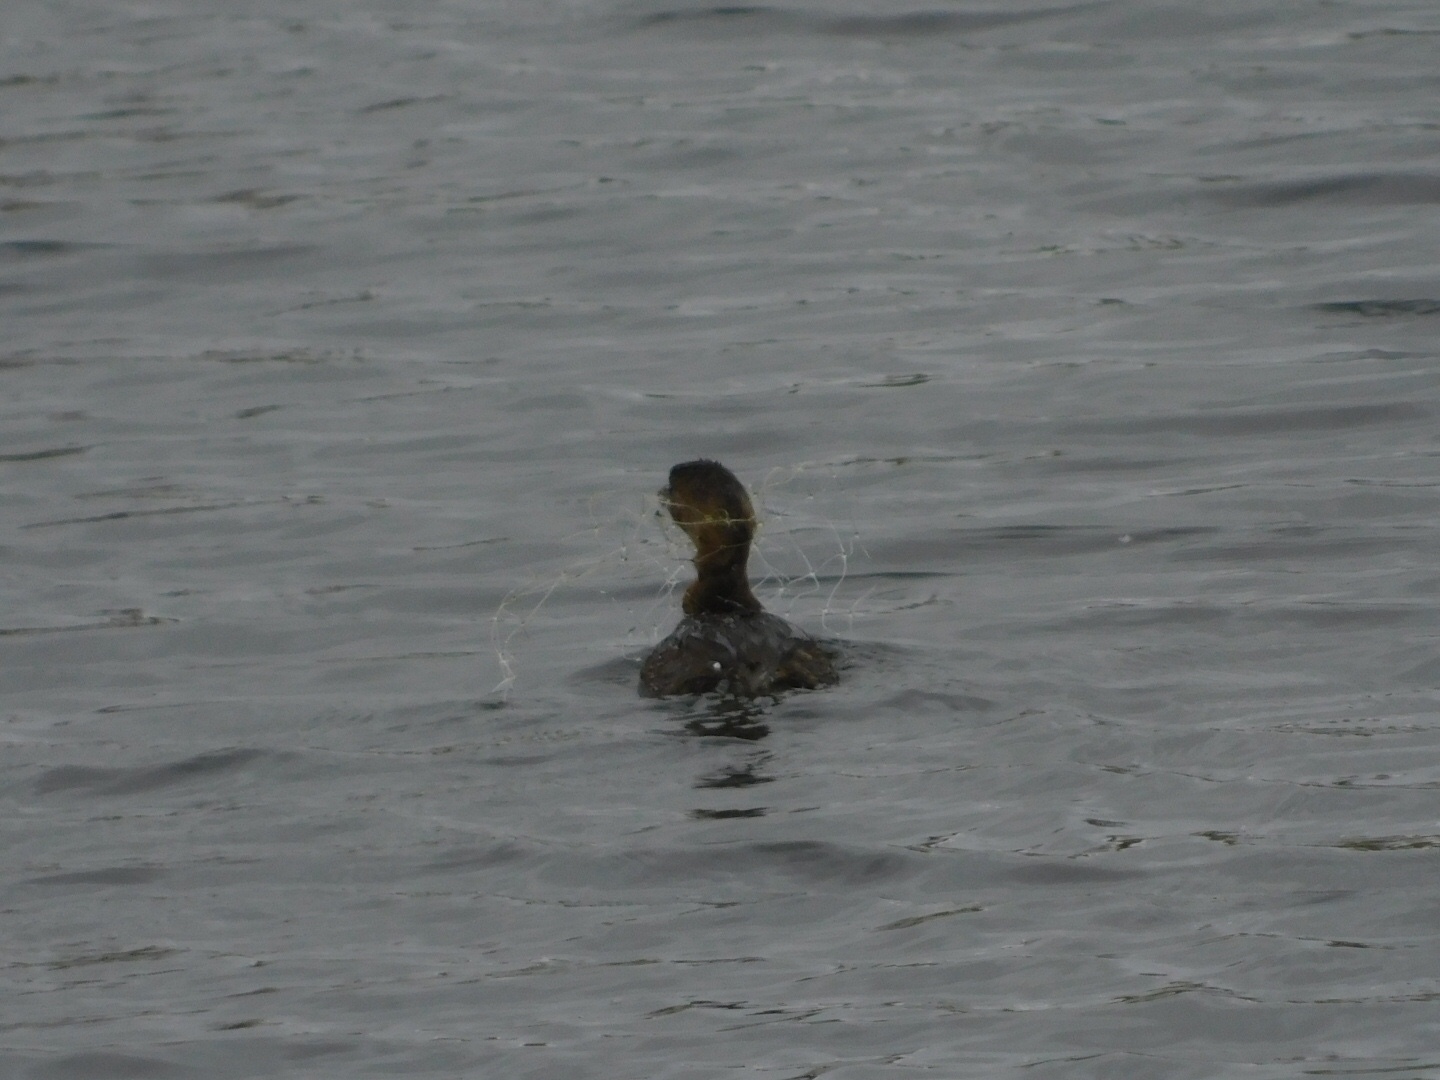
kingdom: Animalia
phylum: Chordata
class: Aves
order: Podicipediformes
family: Podicipedidae
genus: Podilymbus
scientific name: Podilymbus podiceps
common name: Pied-billed grebe
